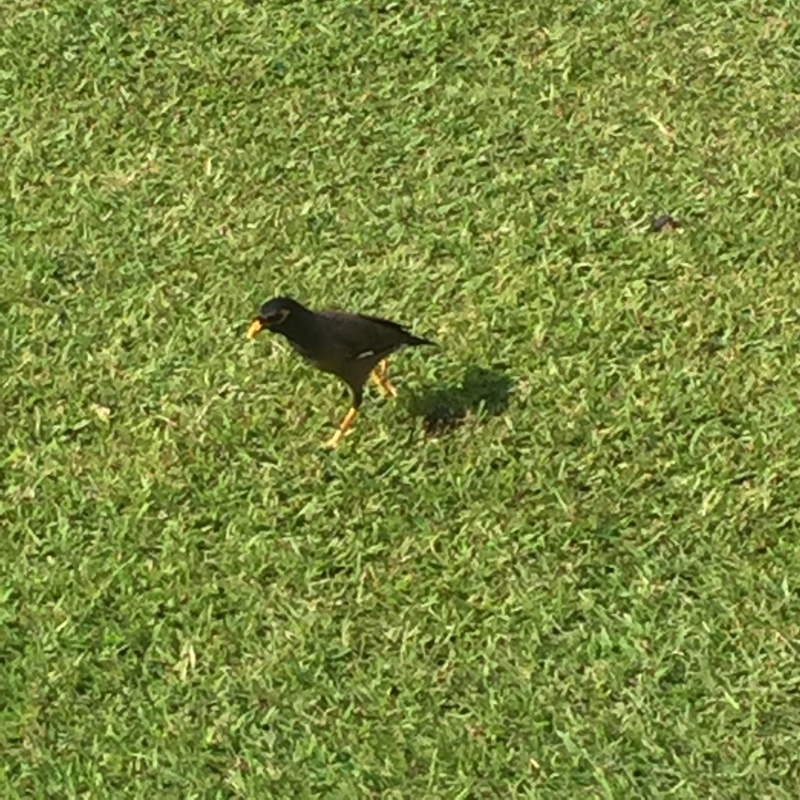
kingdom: Animalia
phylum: Chordata
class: Aves
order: Passeriformes
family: Sturnidae
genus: Acridotheres
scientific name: Acridotheres tristis
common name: Common myna
